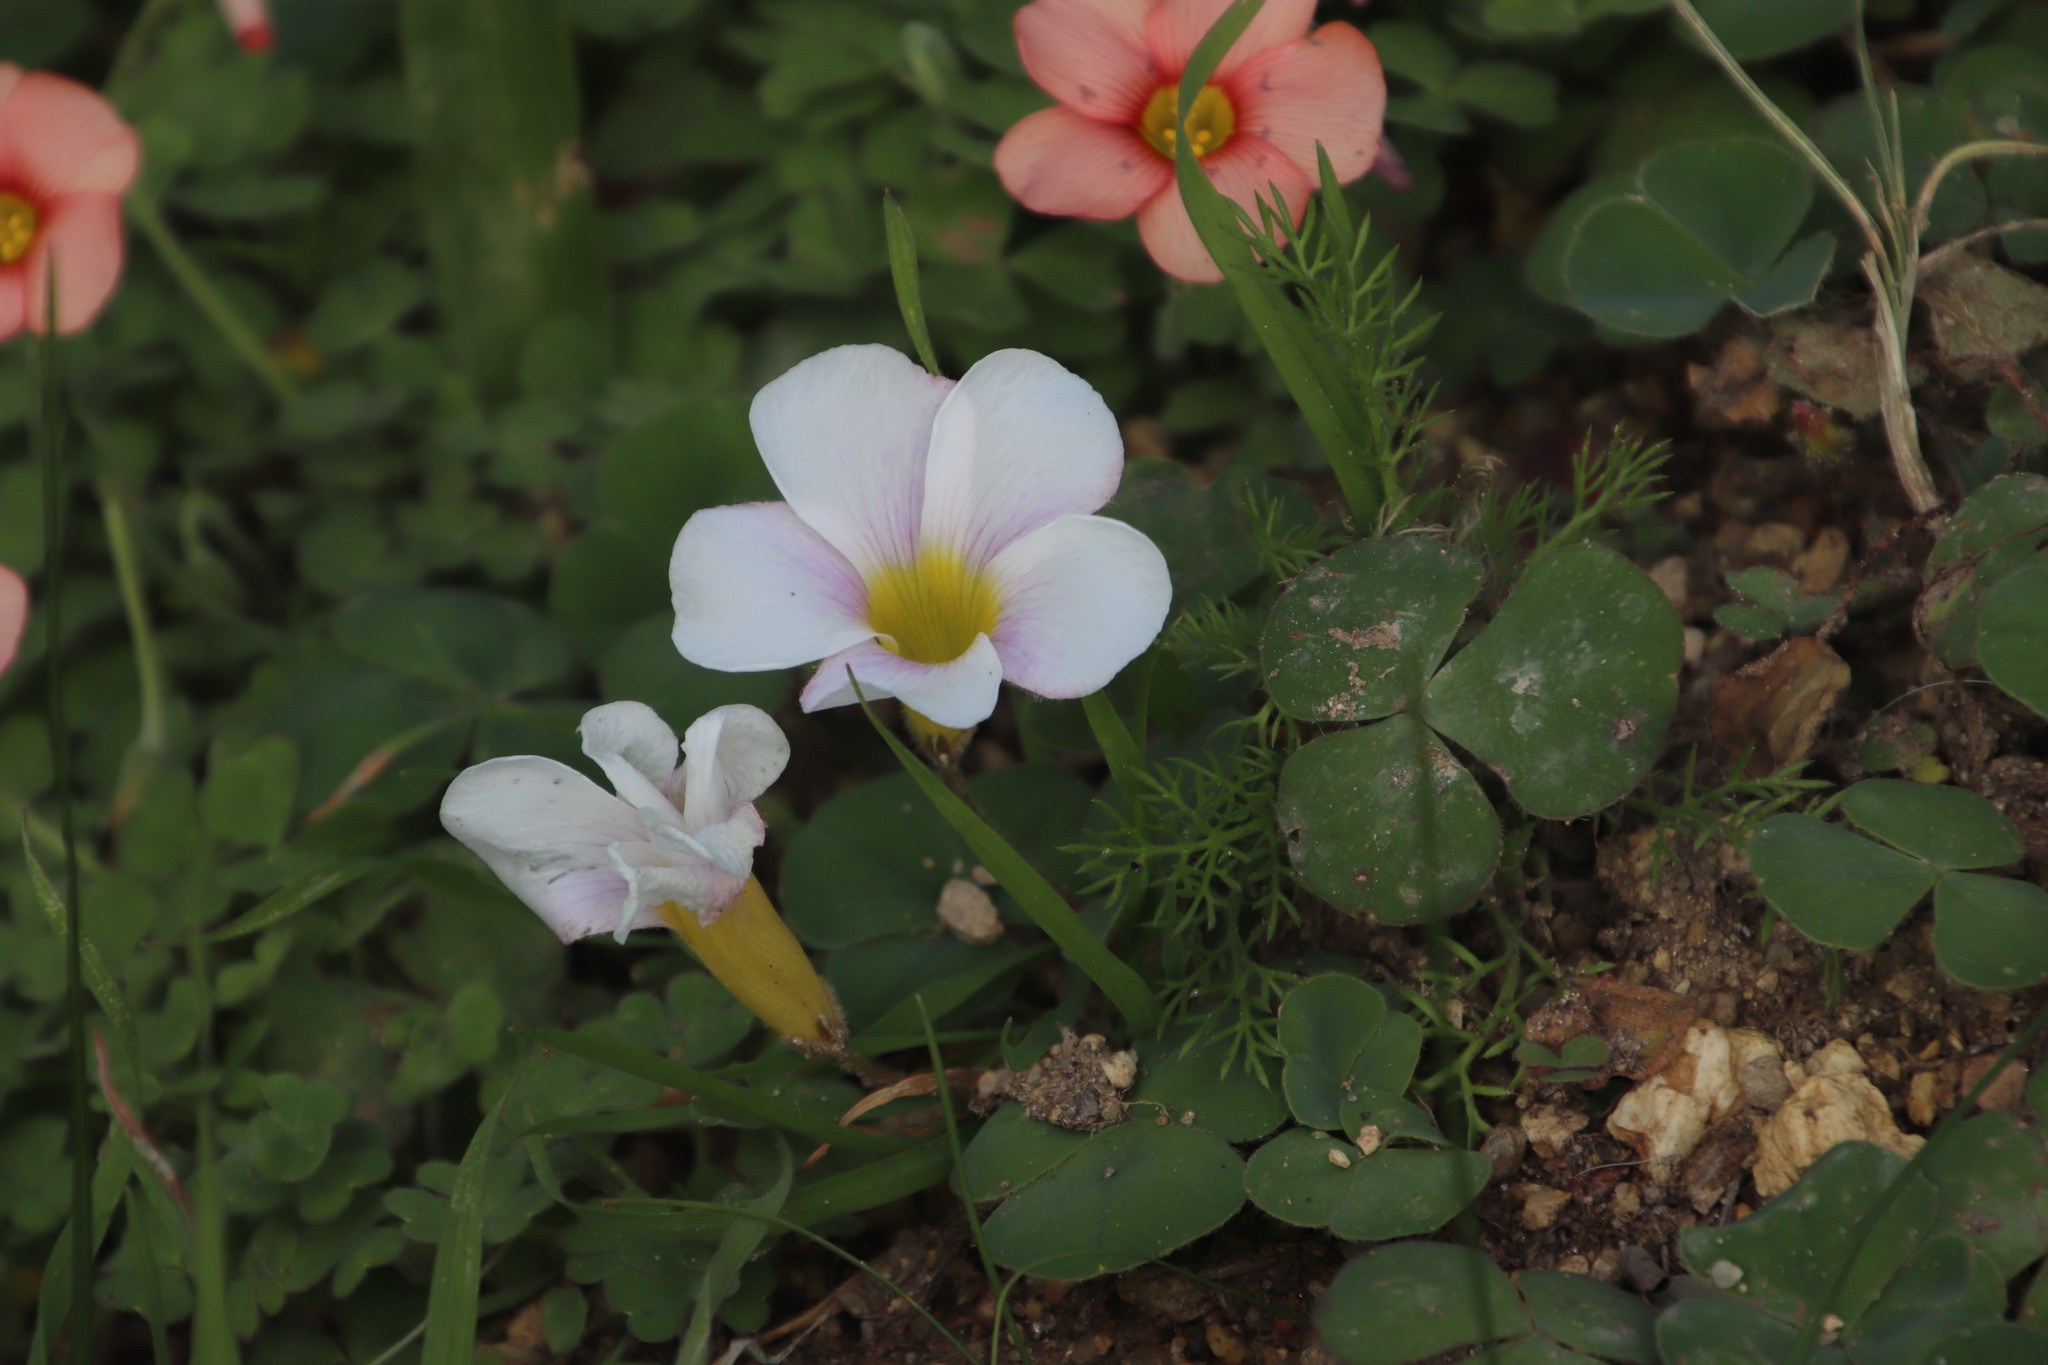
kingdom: Plantae
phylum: Tracheophyta
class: Magnoliopsida
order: Oxalidales
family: Oxalidaceae
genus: Oxalis
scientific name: Oxalis purpurea
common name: Purple woodsorrel
